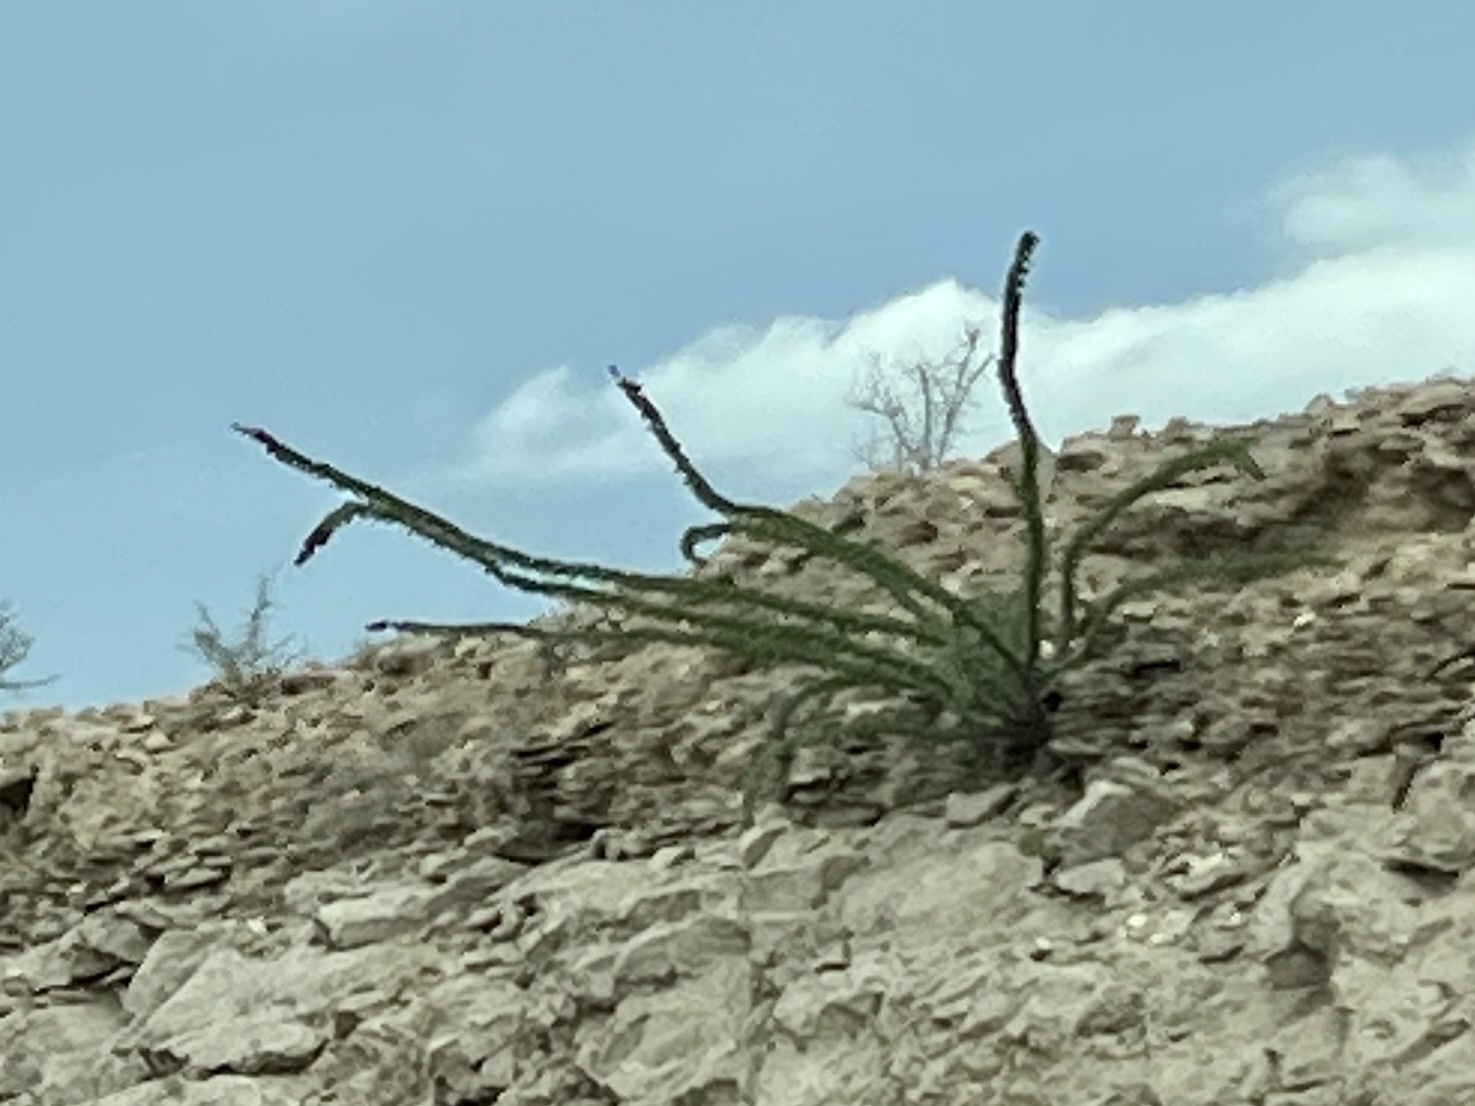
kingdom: Plantae
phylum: Tracheophyta
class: Magnoliopsida
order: Ericales
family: Fouquieriaceae
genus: Fouquieria
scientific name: Fouquieria splendens
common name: Vine-cactus
